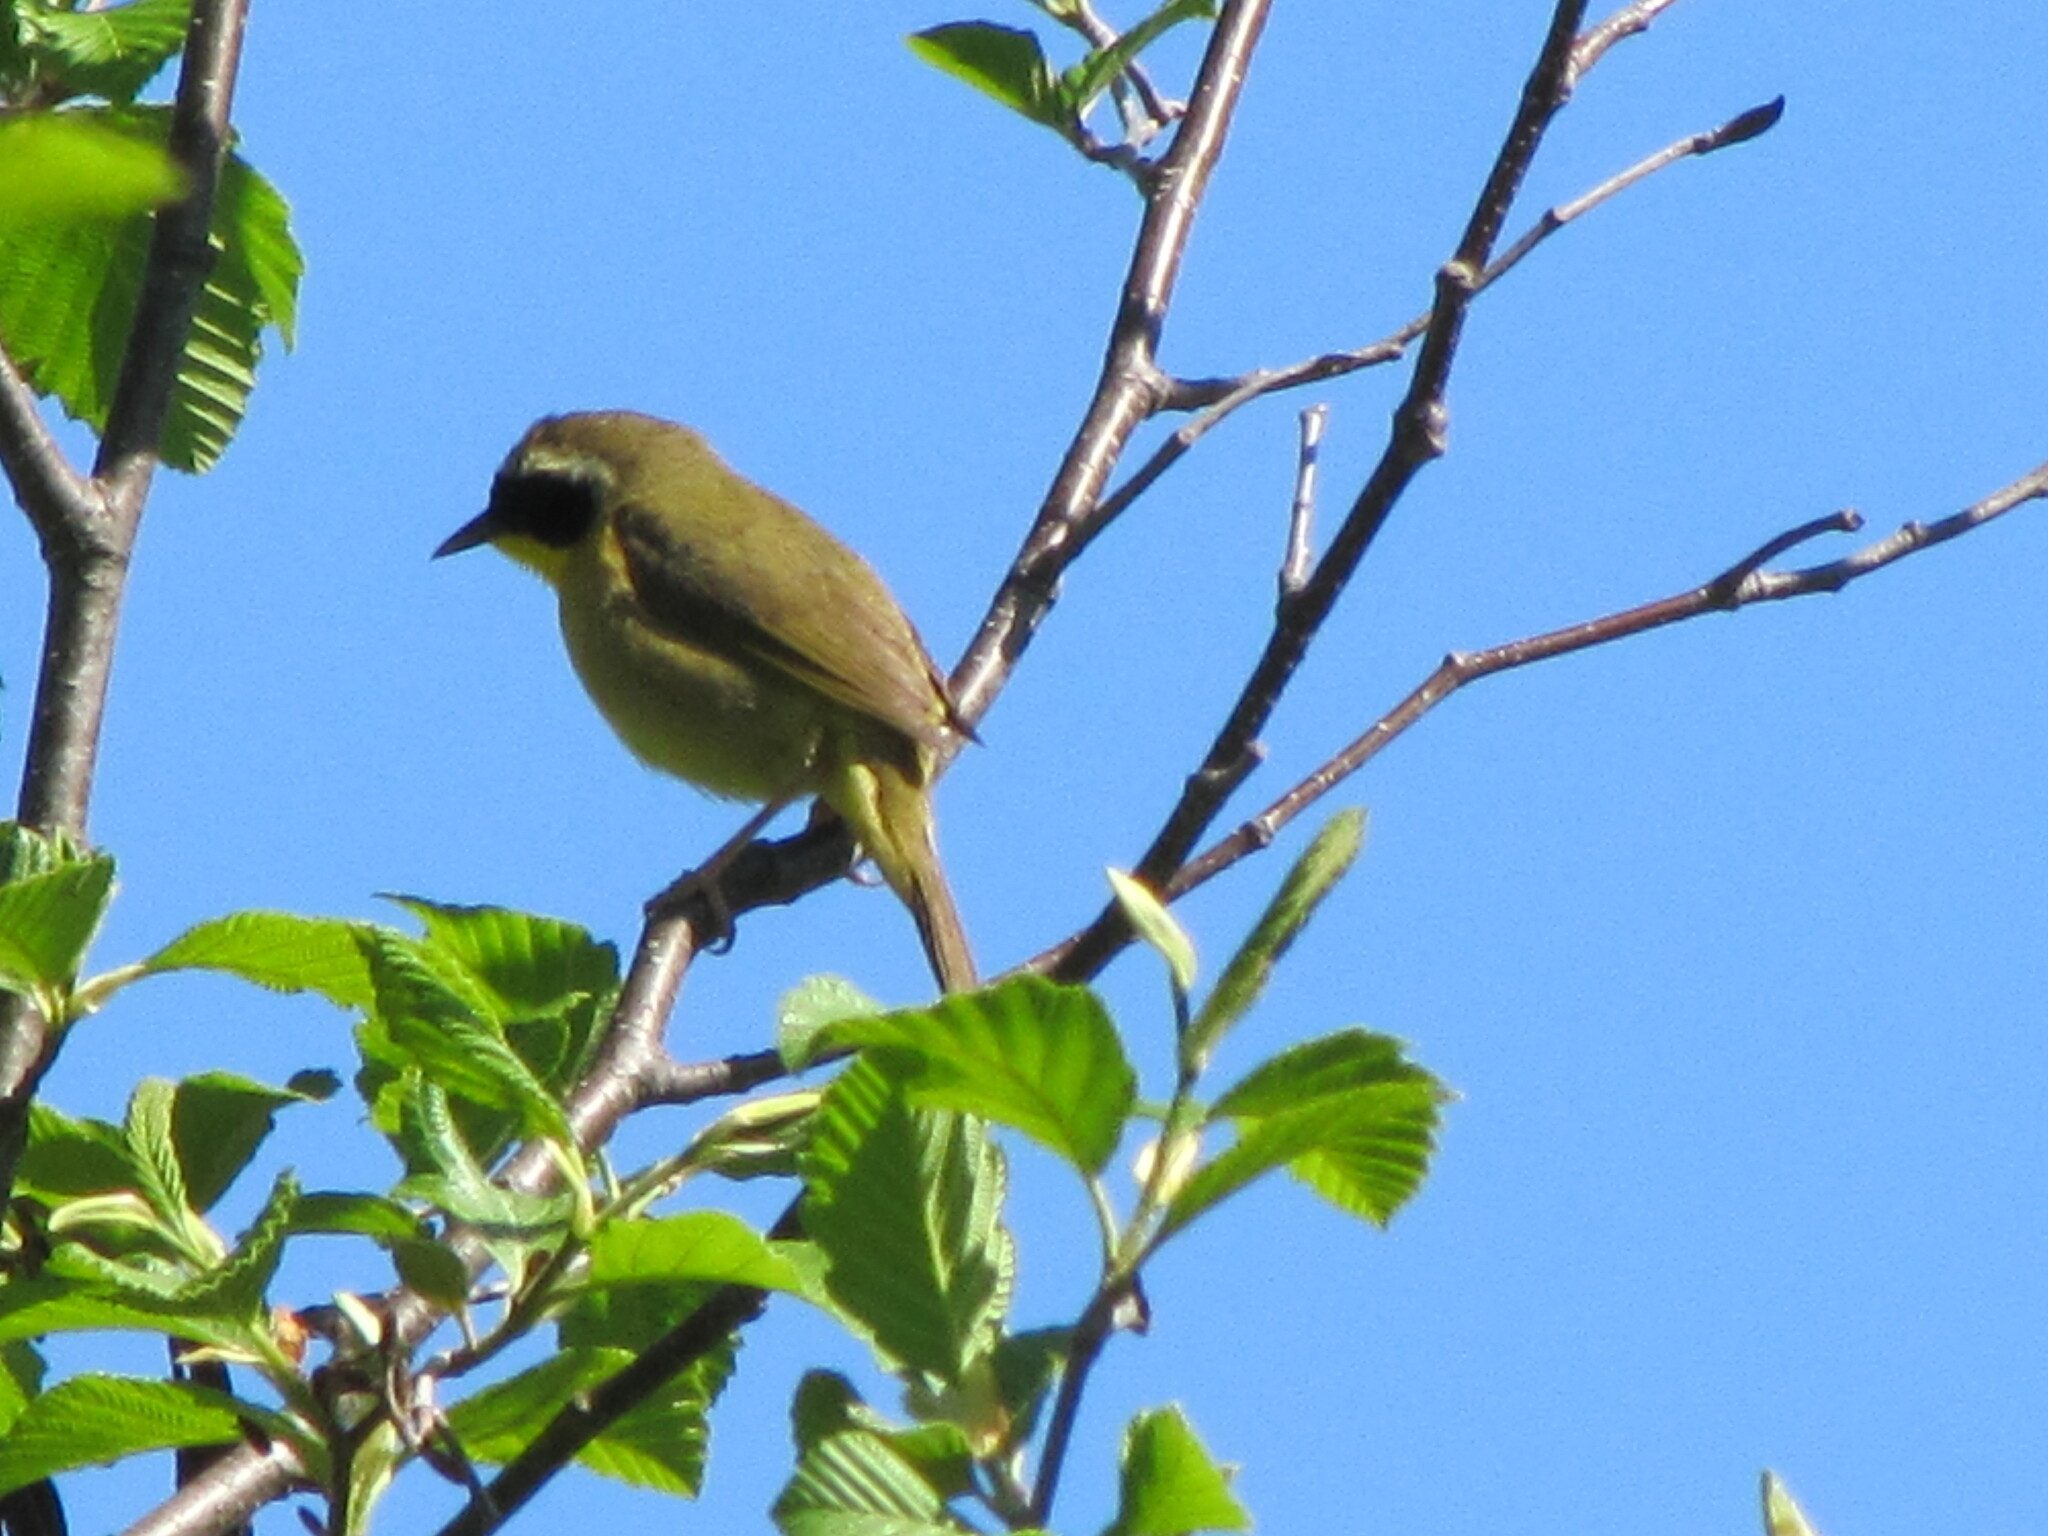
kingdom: Animalia
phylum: Chordata
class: Aves
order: Passeriformes
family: Parulidae
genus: Geothlypis
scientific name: Geothlypis trichas
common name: Common yellowthroat
